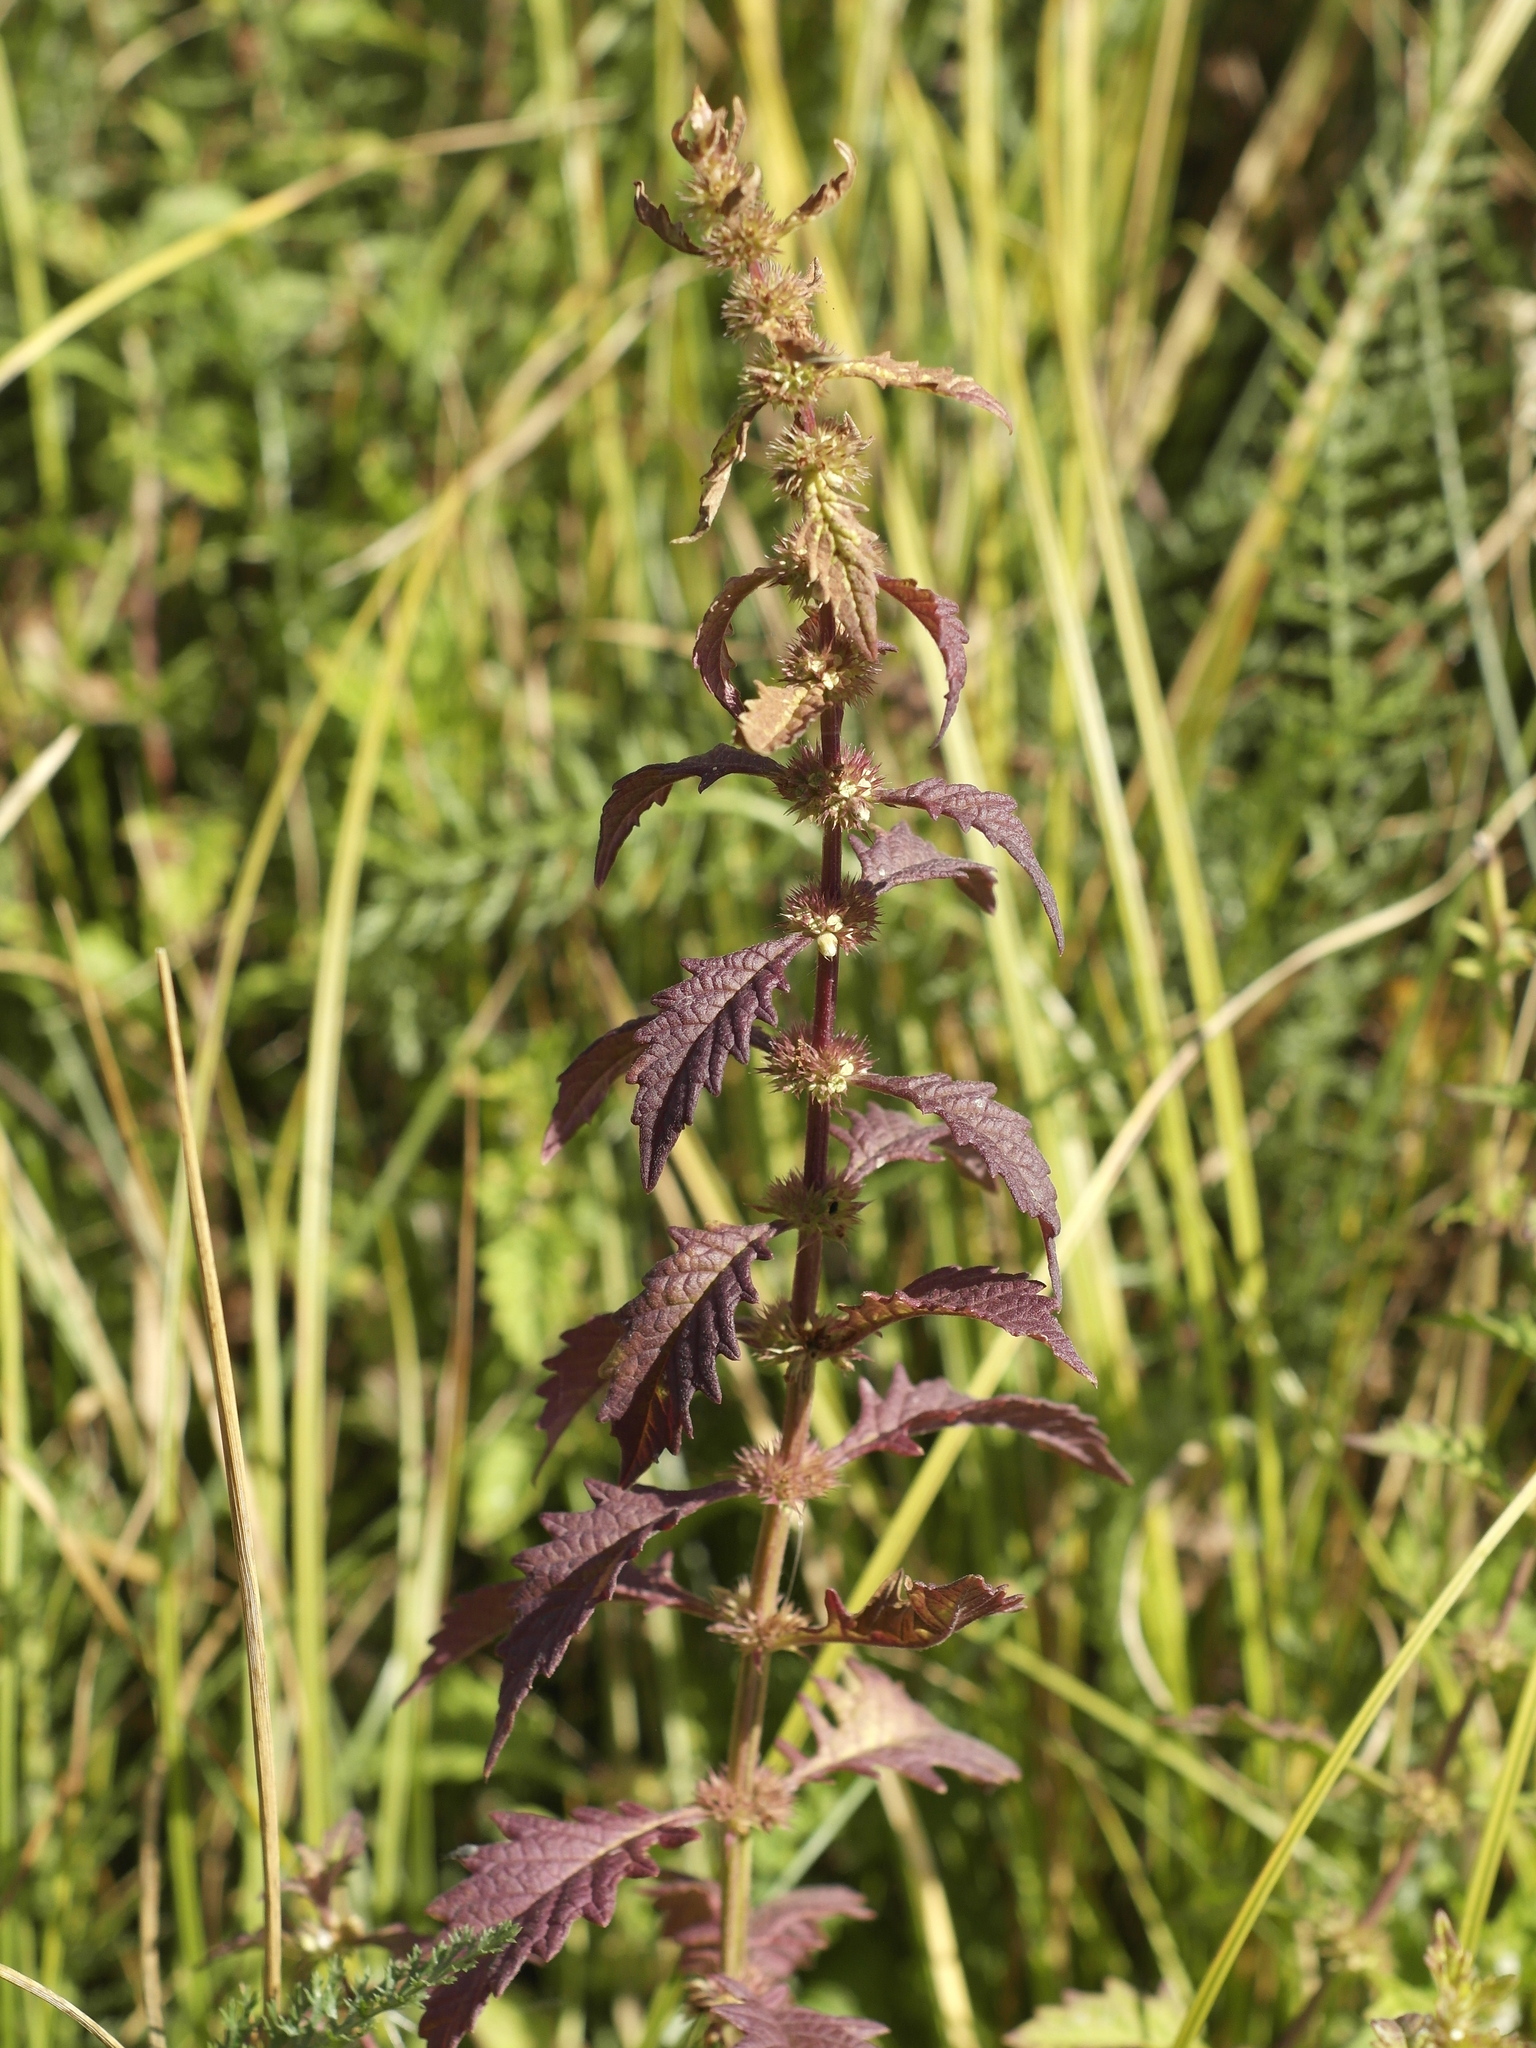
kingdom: Plantae
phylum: Tracheophyta
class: Magnoliopsida
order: Lamiales
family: Lamiaceae
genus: Lycopus
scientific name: Lycopus europaeus
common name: European bugleweed
